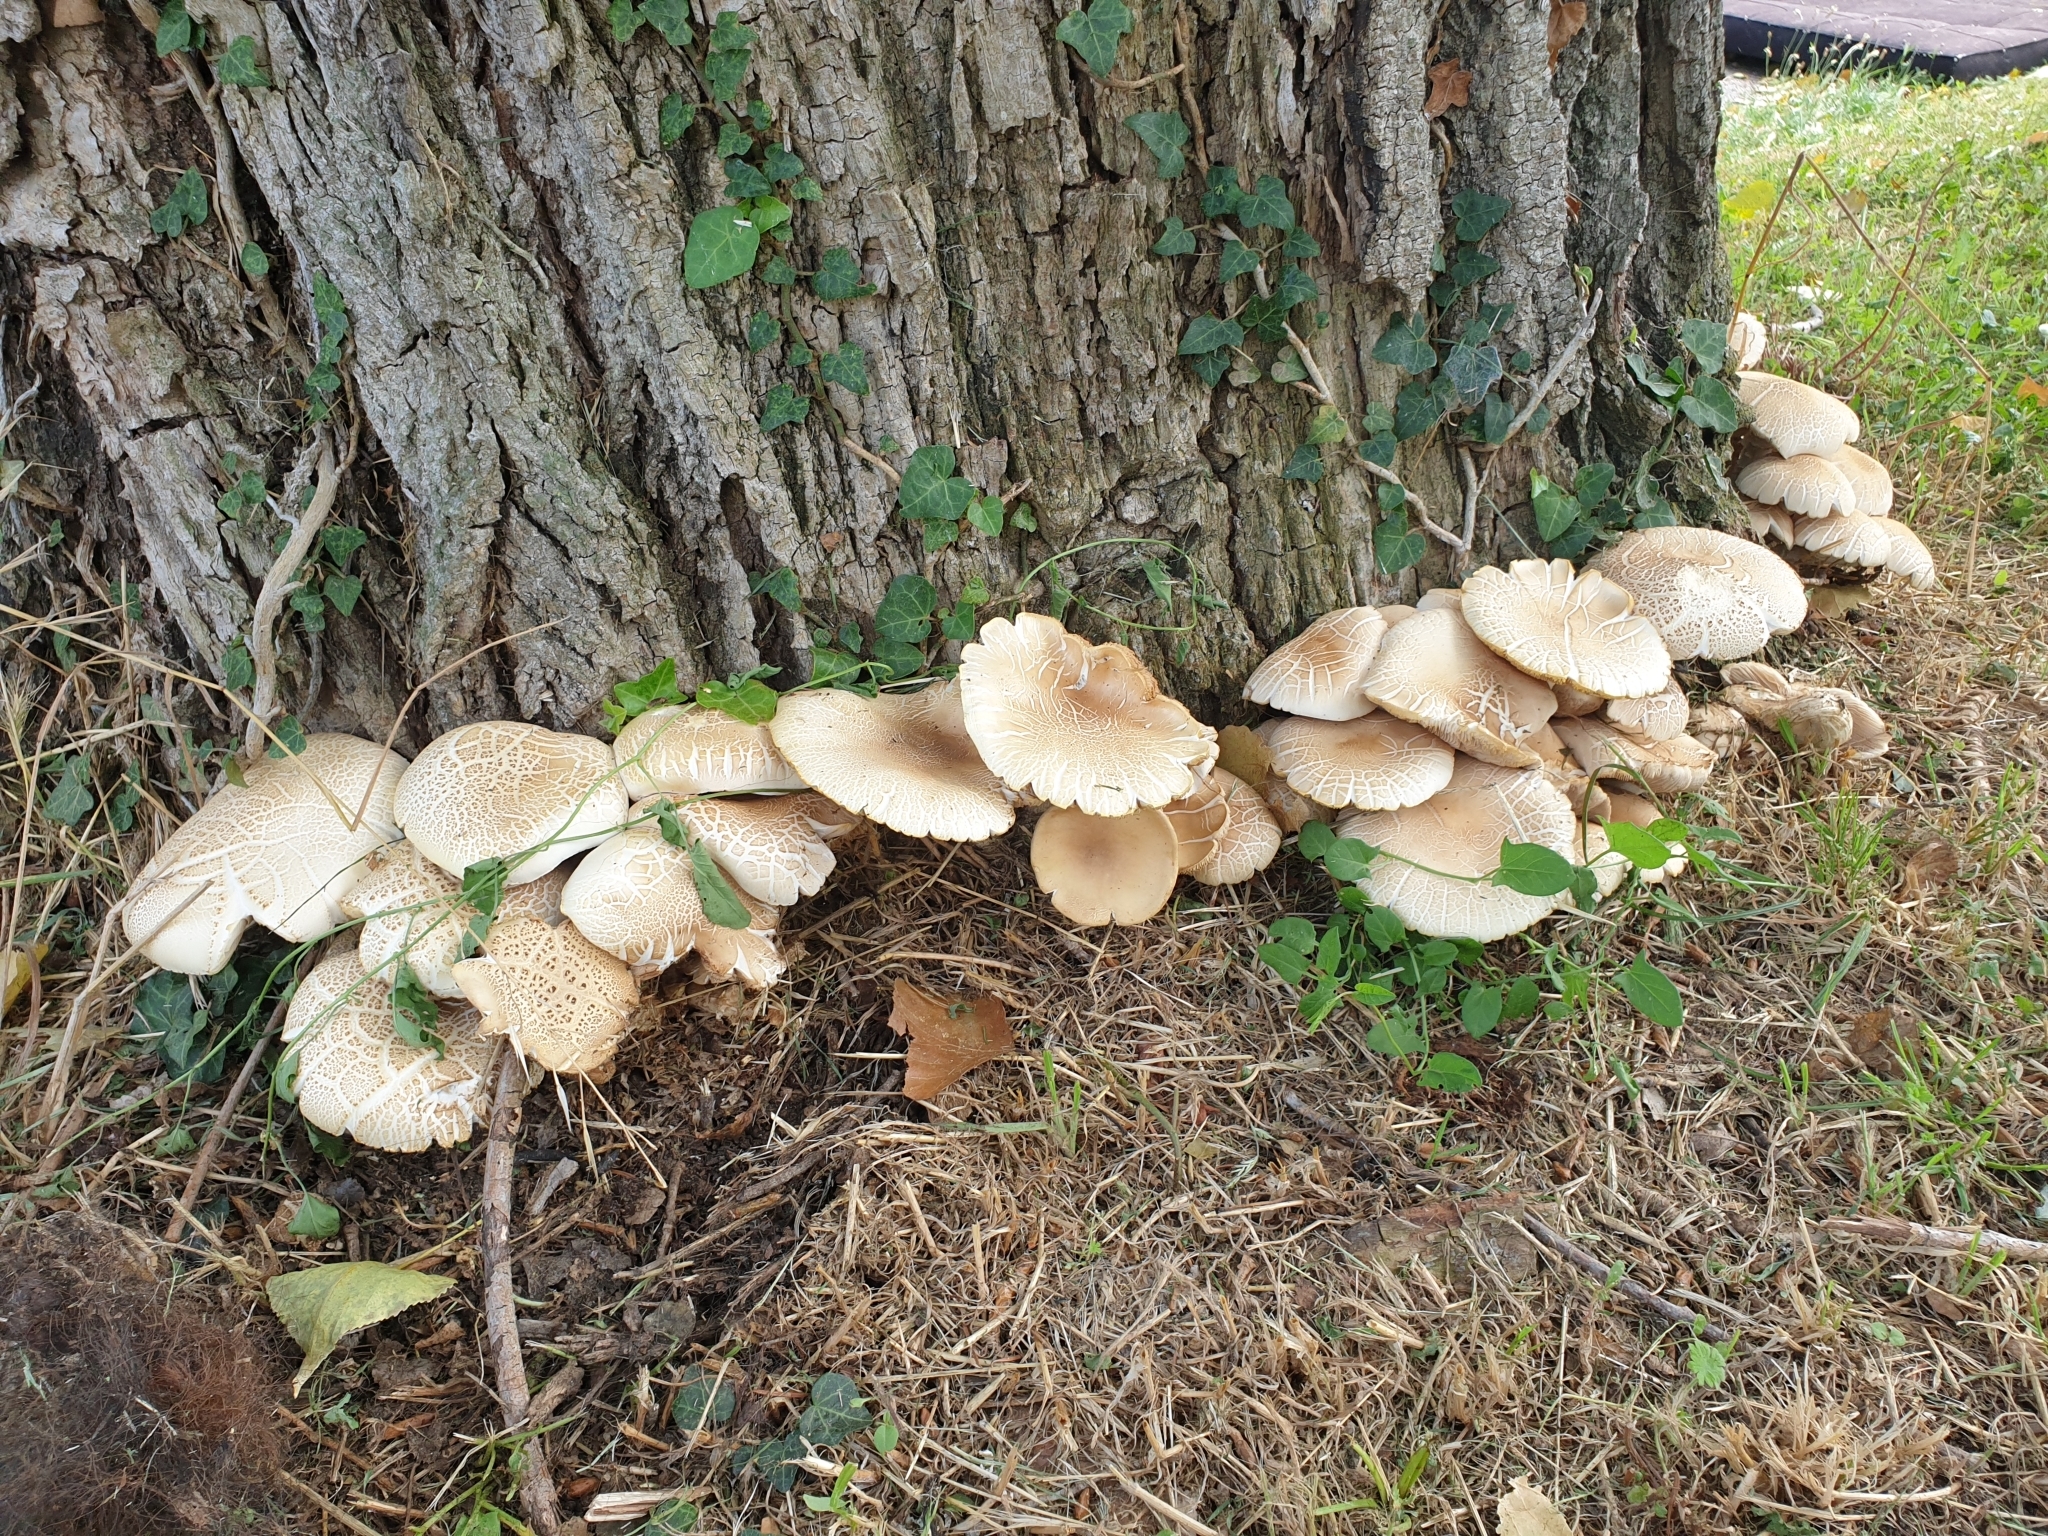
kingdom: Fungi
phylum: Basidiomycota
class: Agaricomycetes
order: Agaricales
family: Tubariaceae
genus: Cyclocybe
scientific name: Cyclocybe cylindracea
